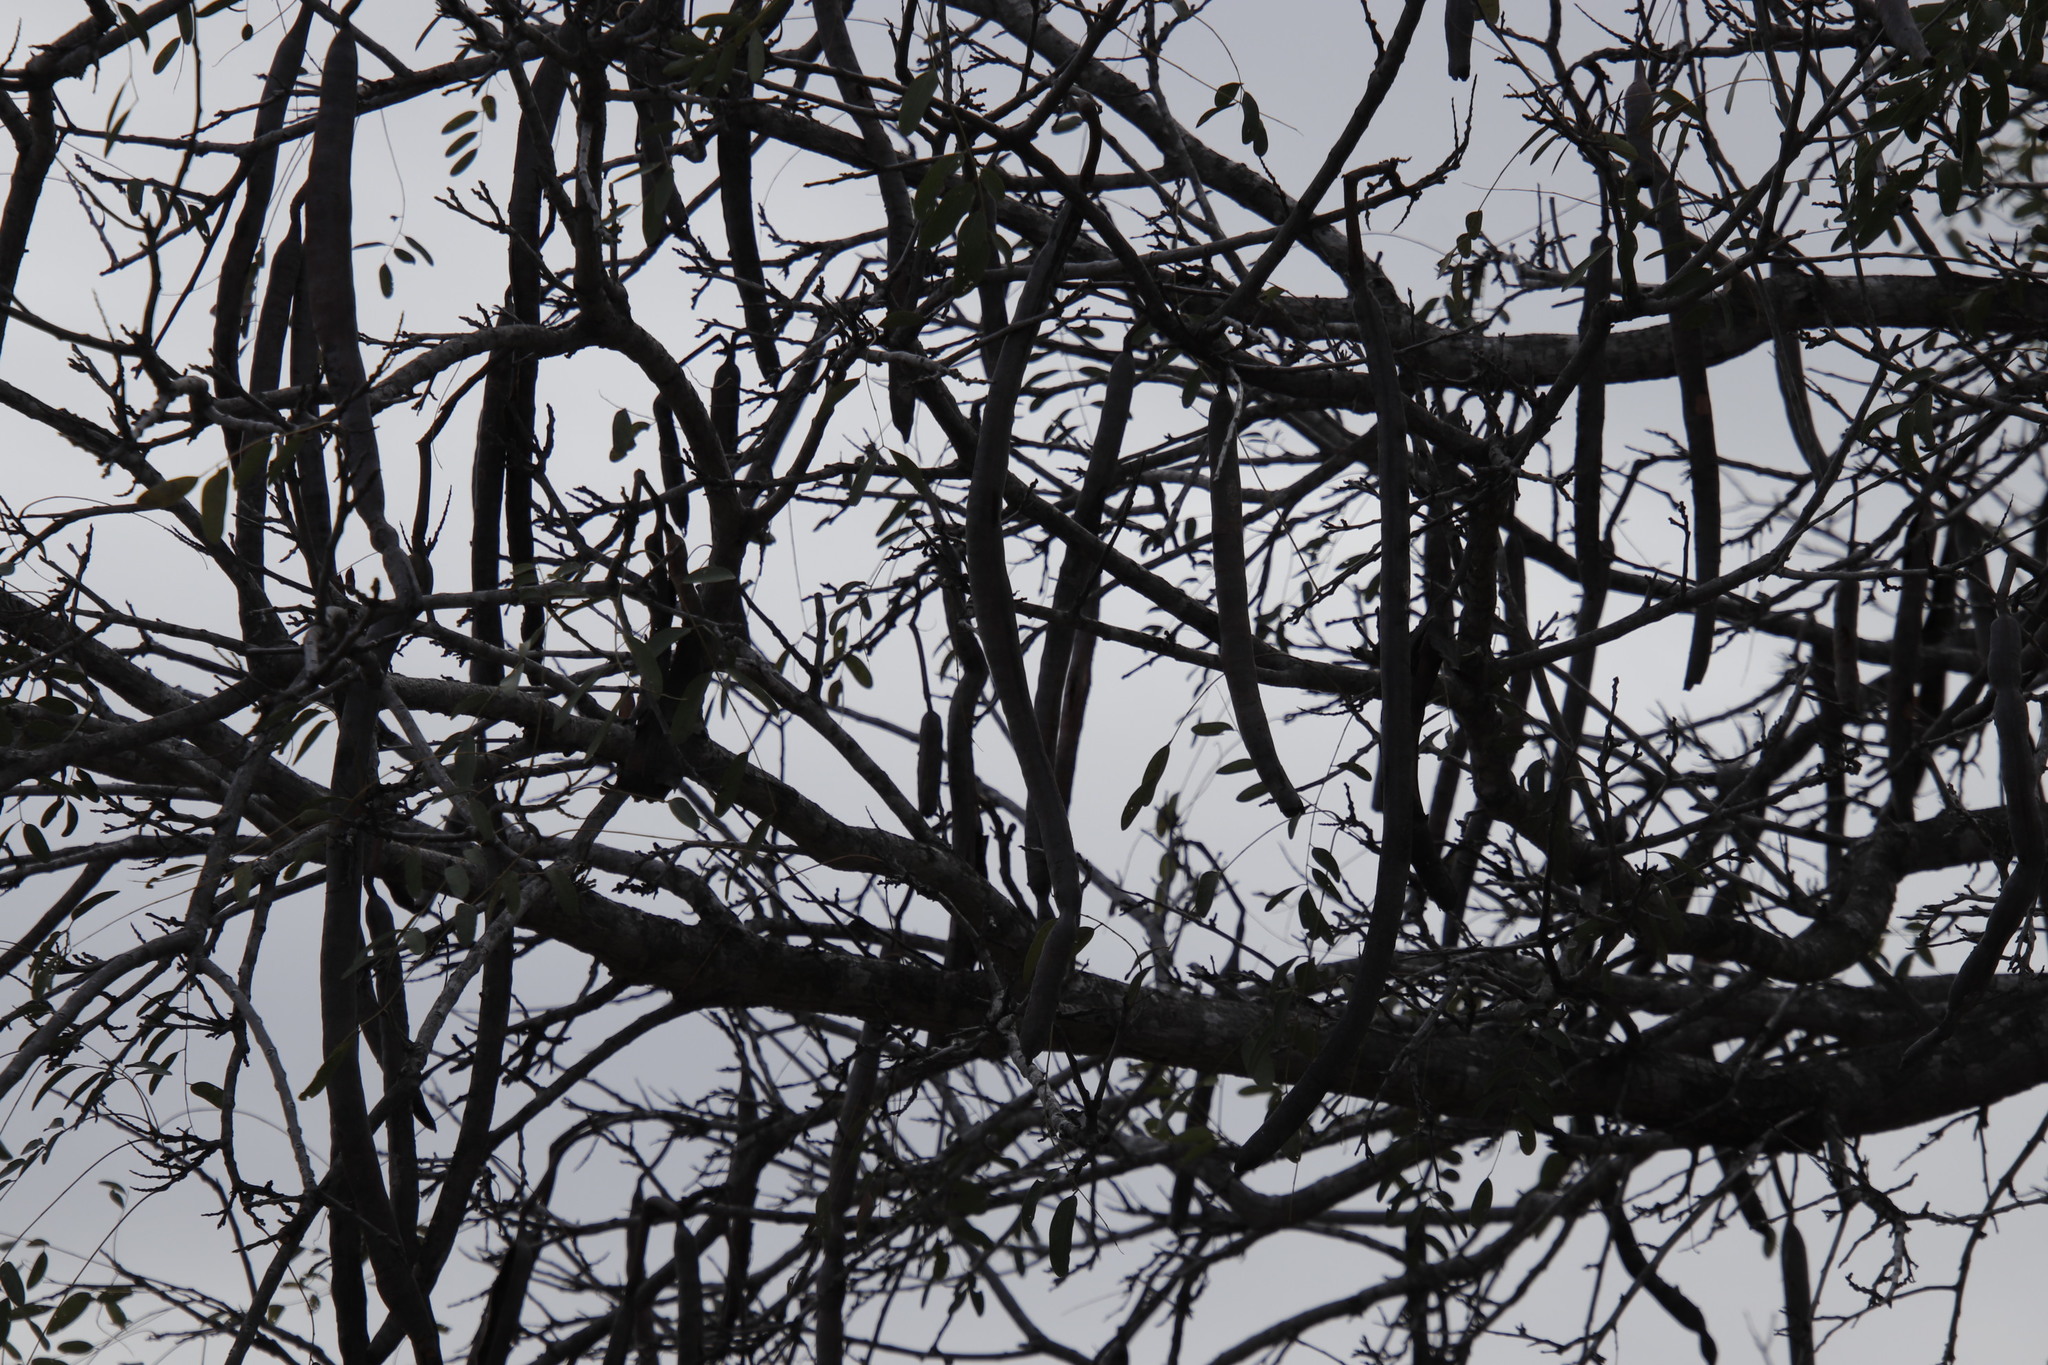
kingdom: Plantae
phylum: Tracheophyta
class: Magnoliopsida
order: Fabales
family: Fabaceae
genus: Cassia
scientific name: Cassia abbreviata
